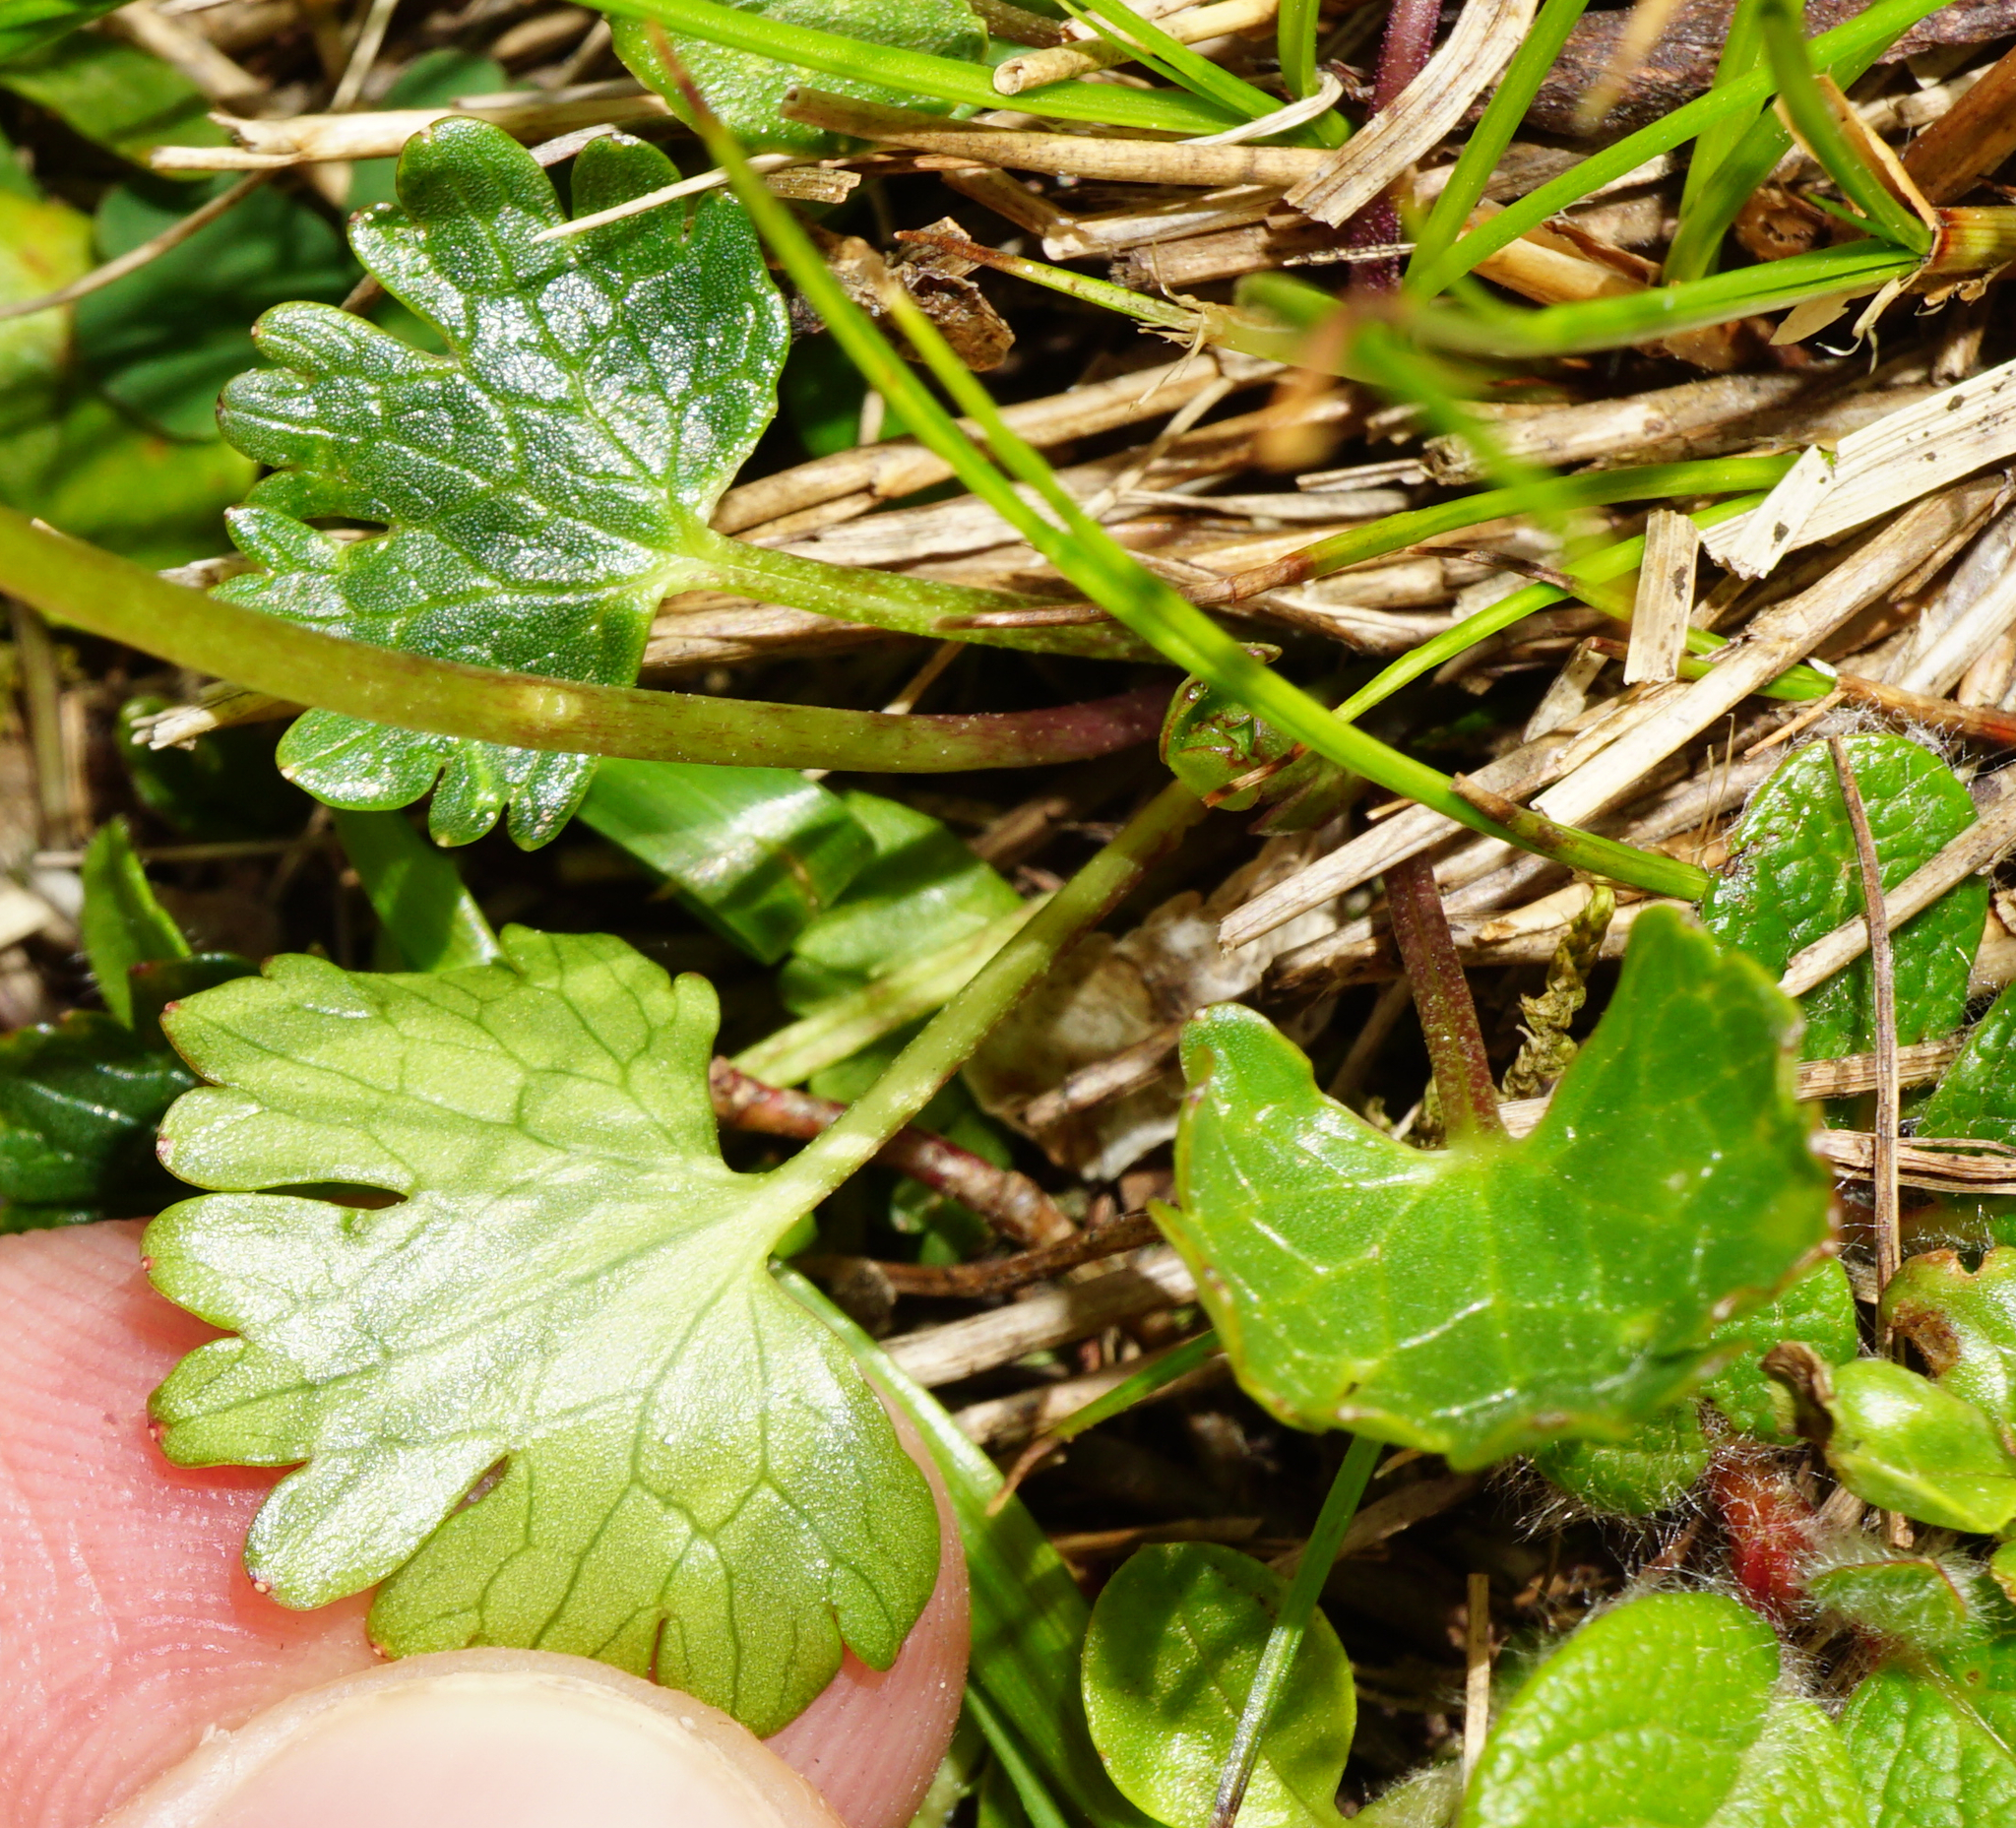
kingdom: Plantae
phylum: Tracheophyta
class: Magnoliopsida
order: Ranunculales
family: Ranunculaceae
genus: Ranunculus
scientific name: Ranunculus alpestris
